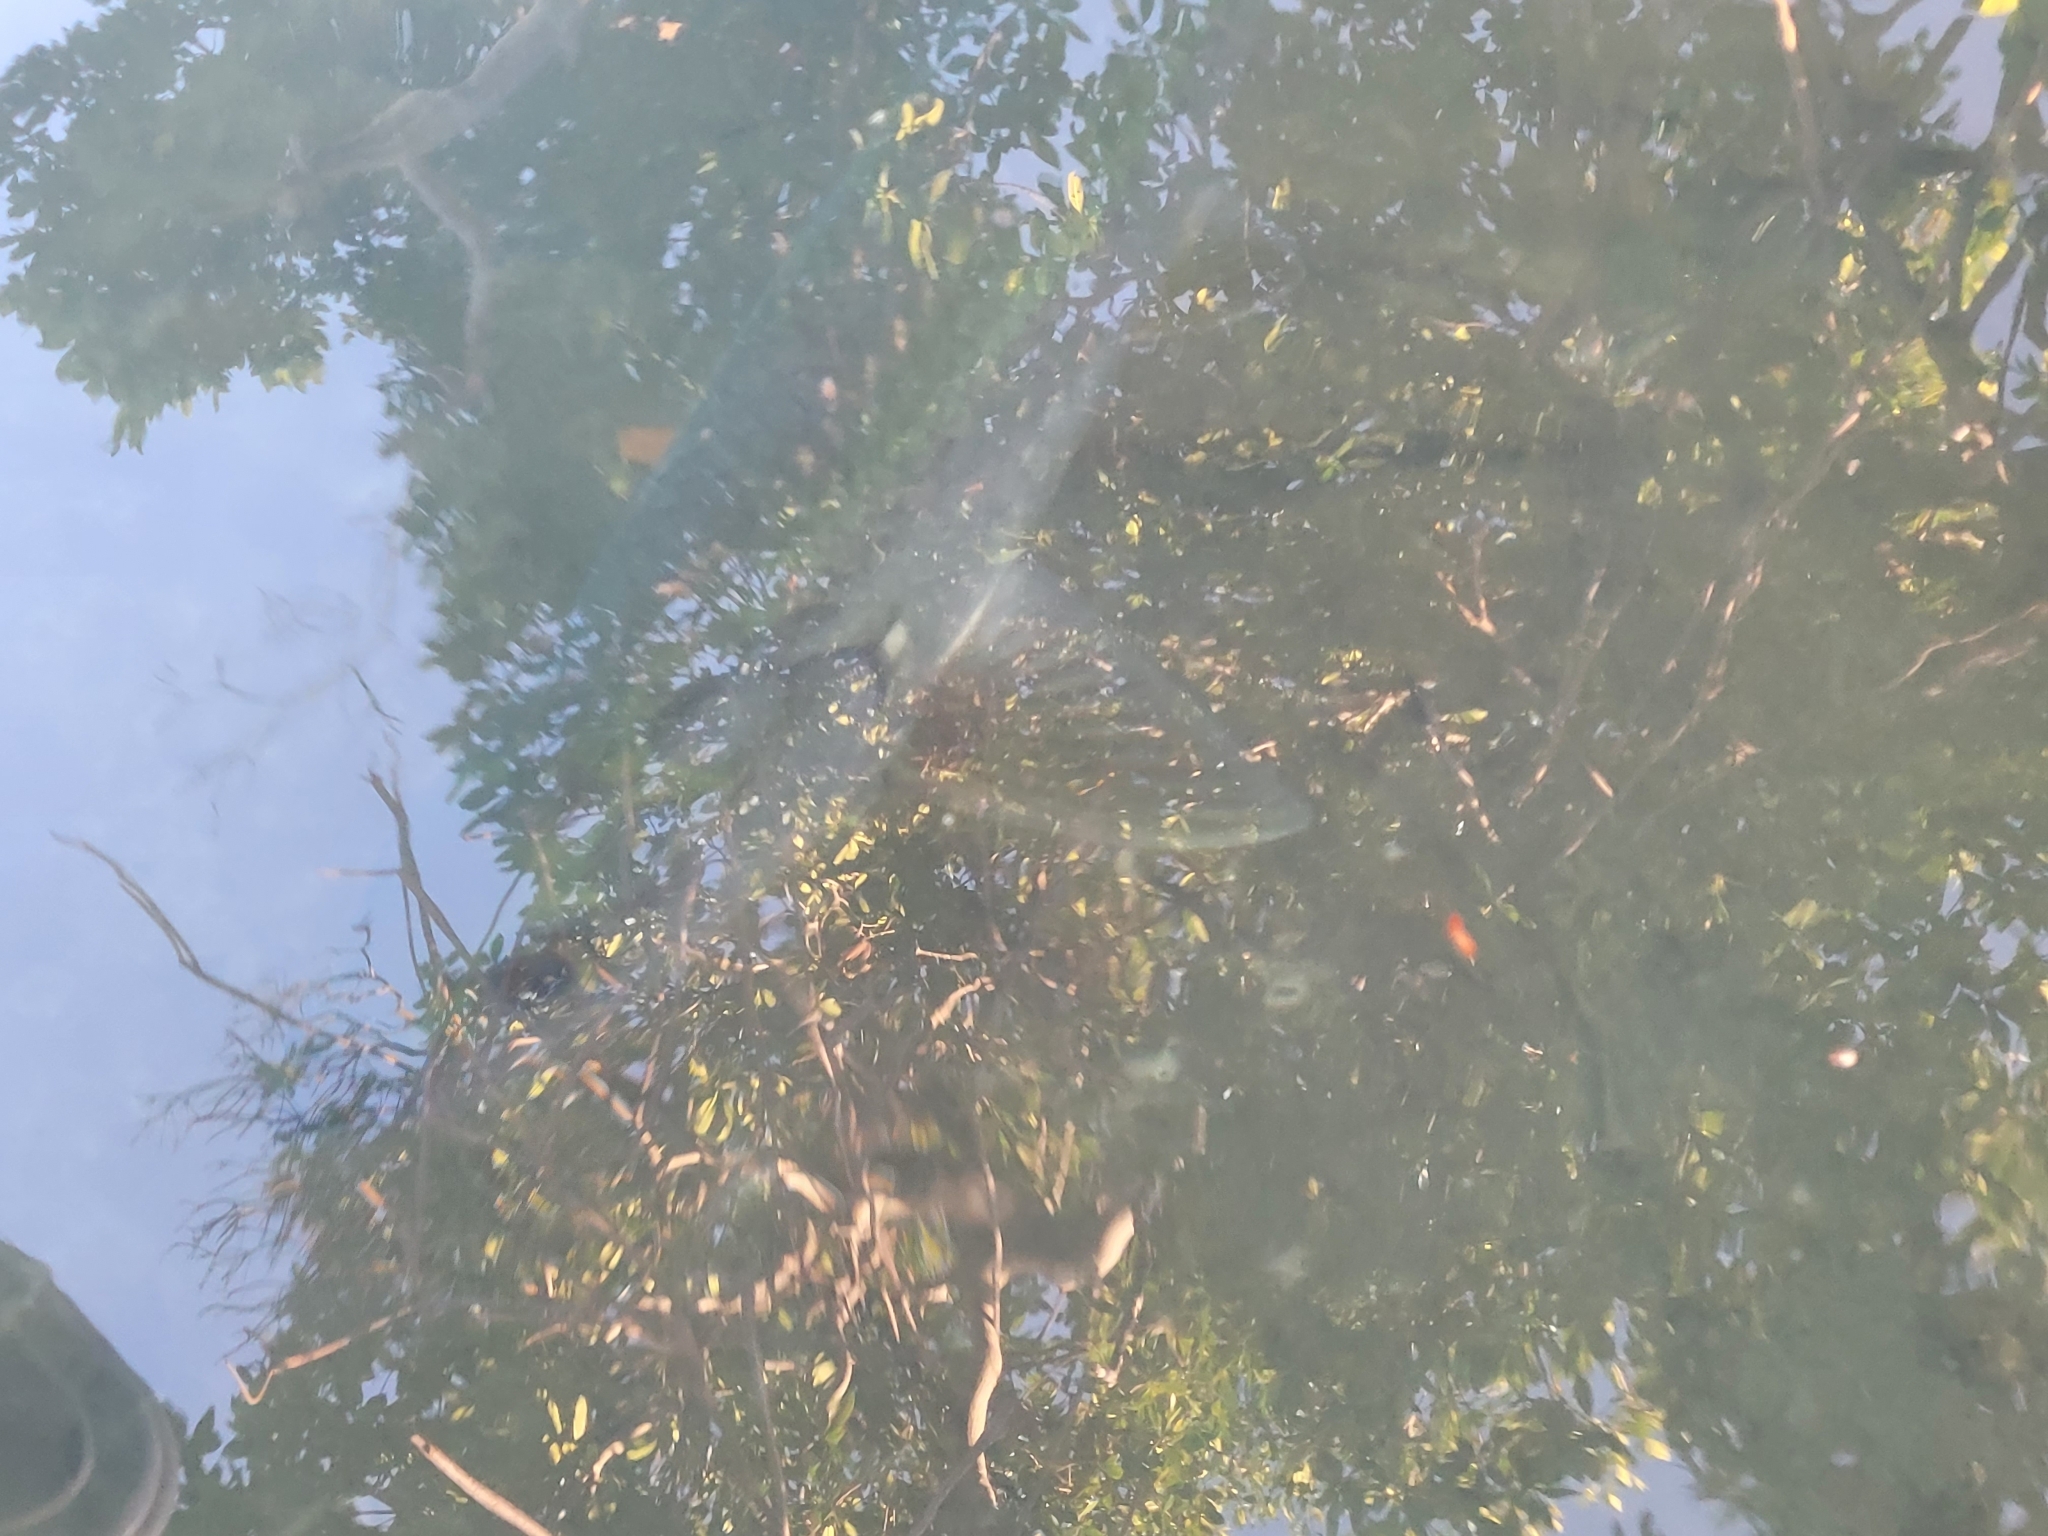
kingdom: Animalia
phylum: Chordata
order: Elopiformes
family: Megalopidae
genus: Megalops
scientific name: Megalops atlanticus
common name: Tarpon
